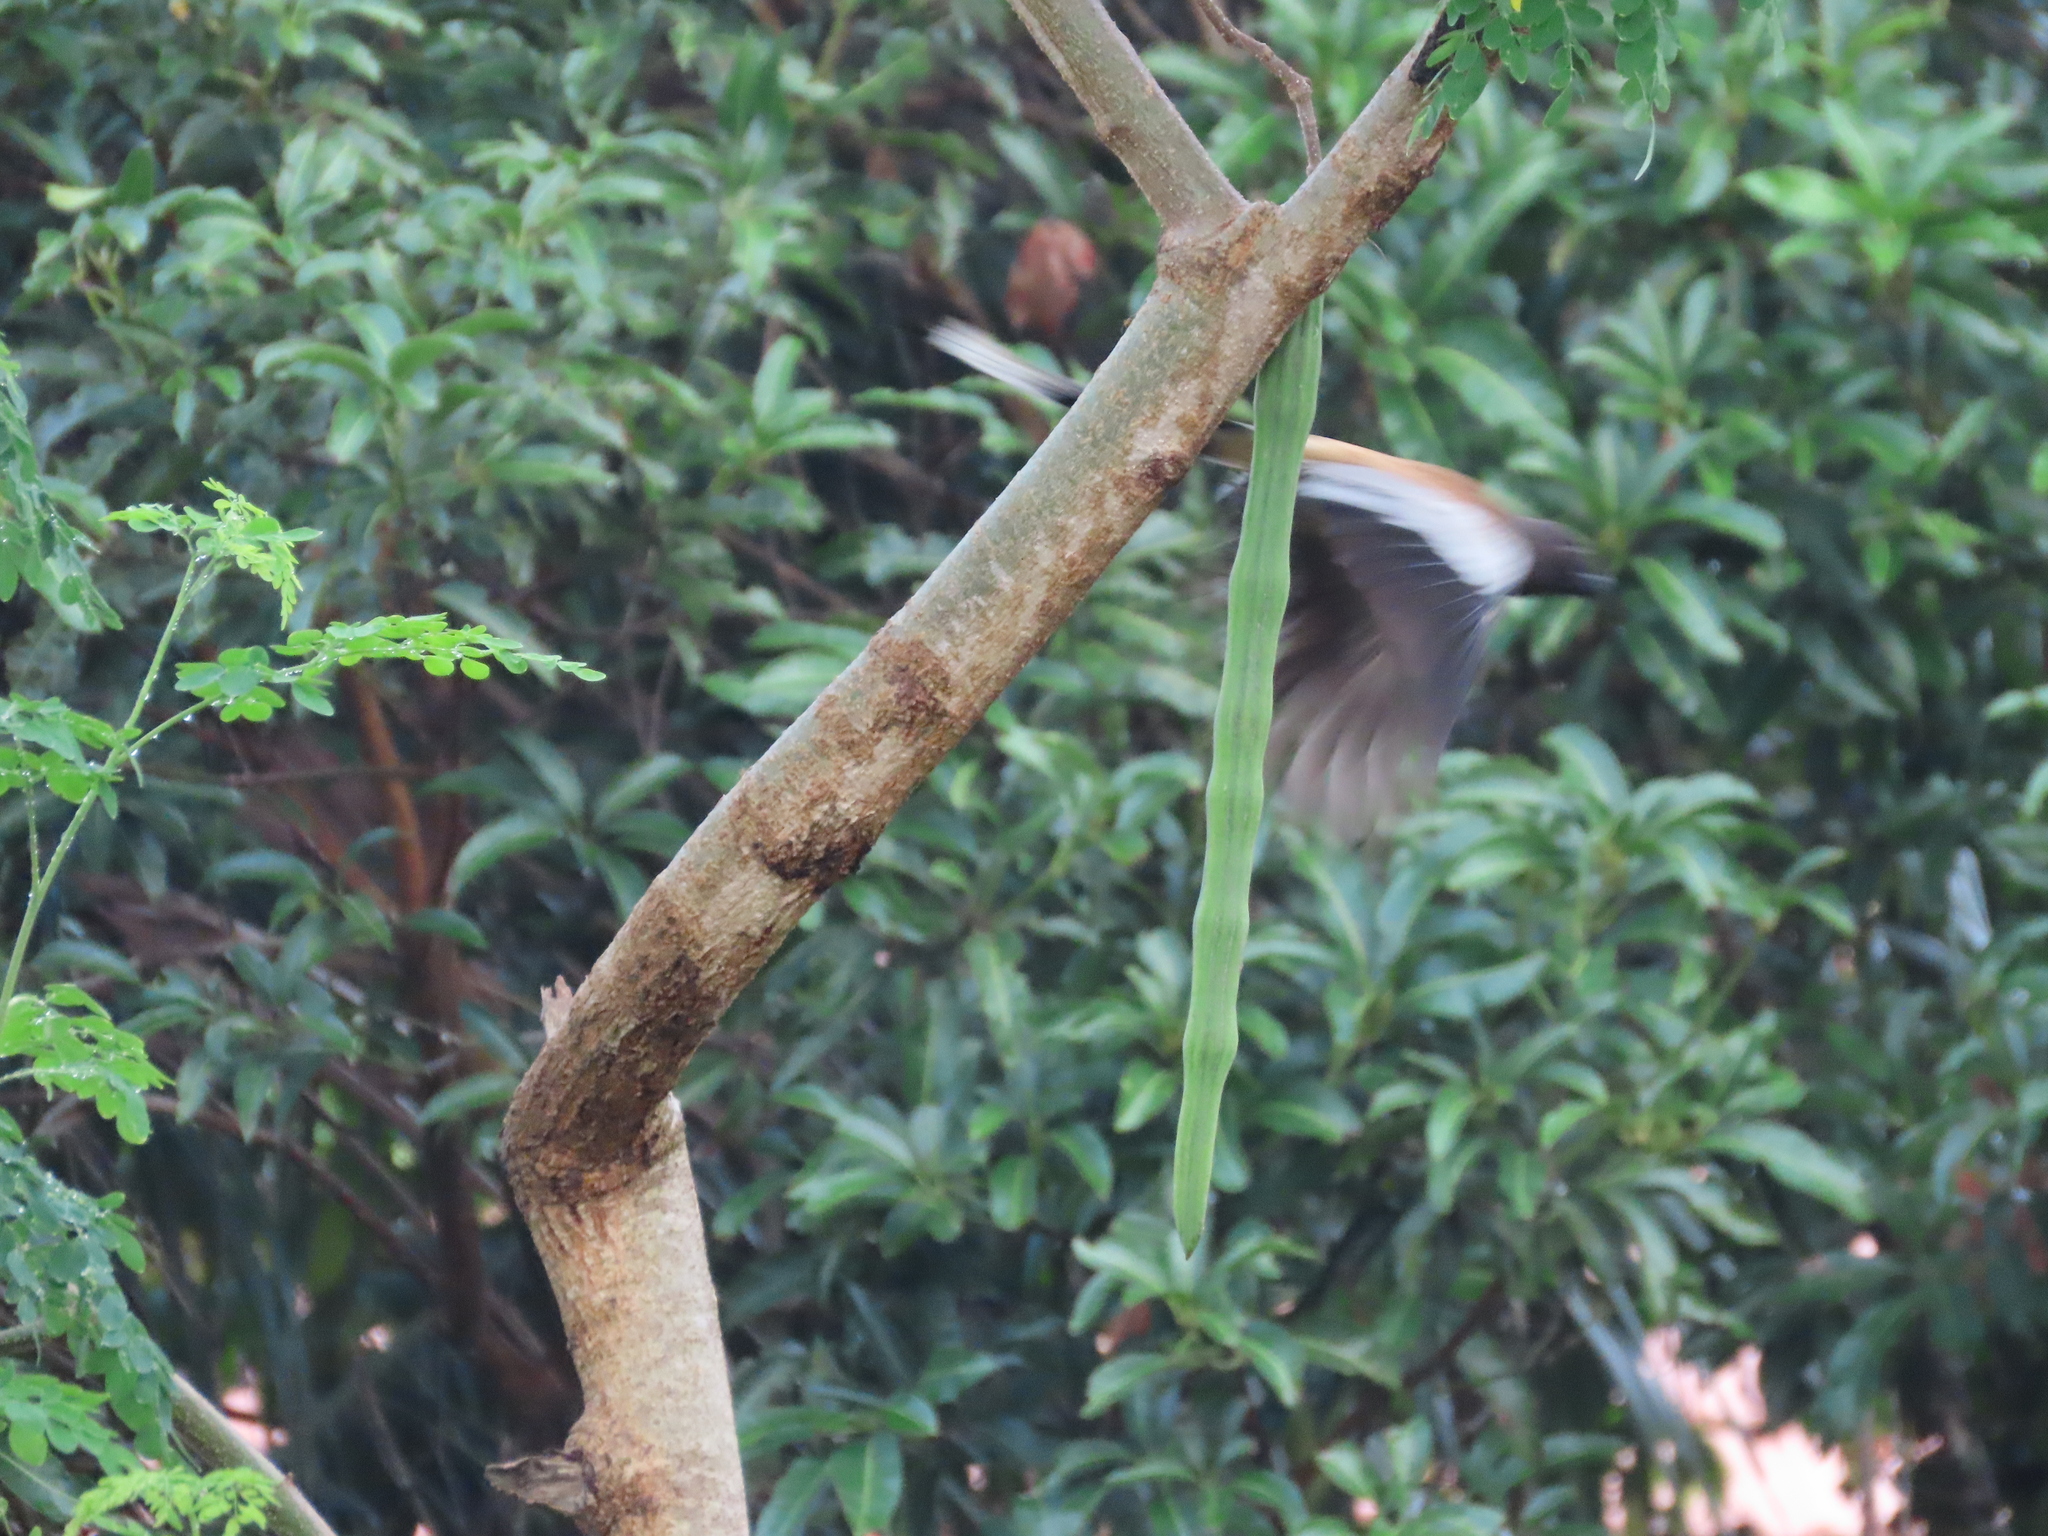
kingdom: Animalia
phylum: Chordata
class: Aves
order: Passeriformes
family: Corvidae
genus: Dendrocitta
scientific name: Dendrocitta vagabunda
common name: Rufous treepie
